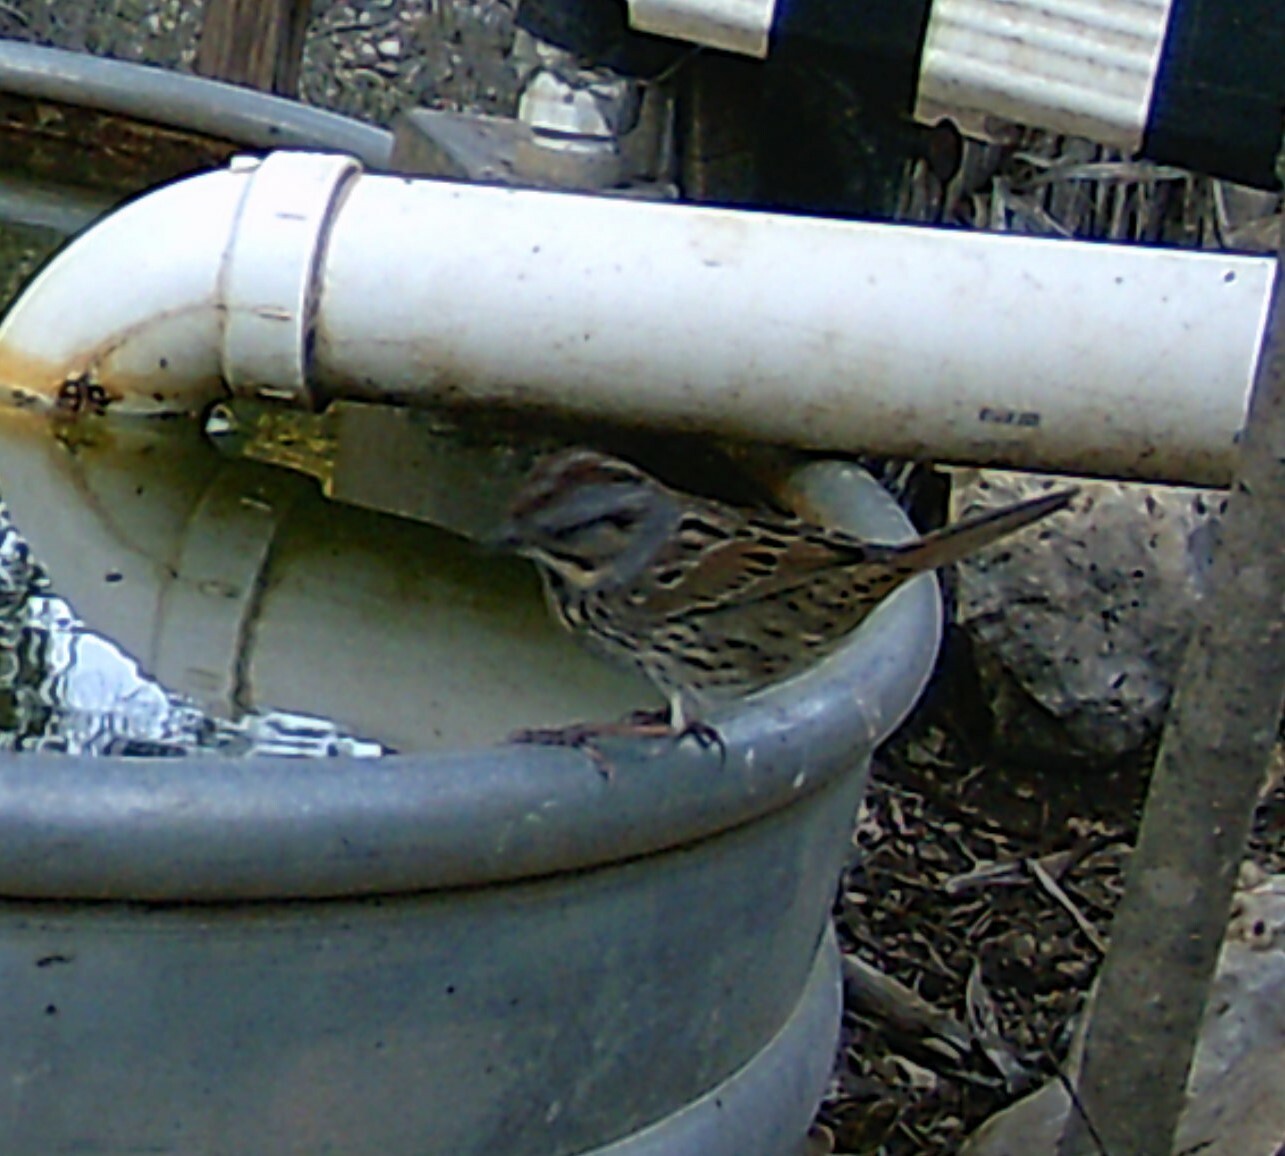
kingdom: Animalia
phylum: Chordata
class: Aves
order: Passeriformes
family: Passerellidae
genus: Melospiza
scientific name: Melospiza lincolnii
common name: Lincoln's sparrow
